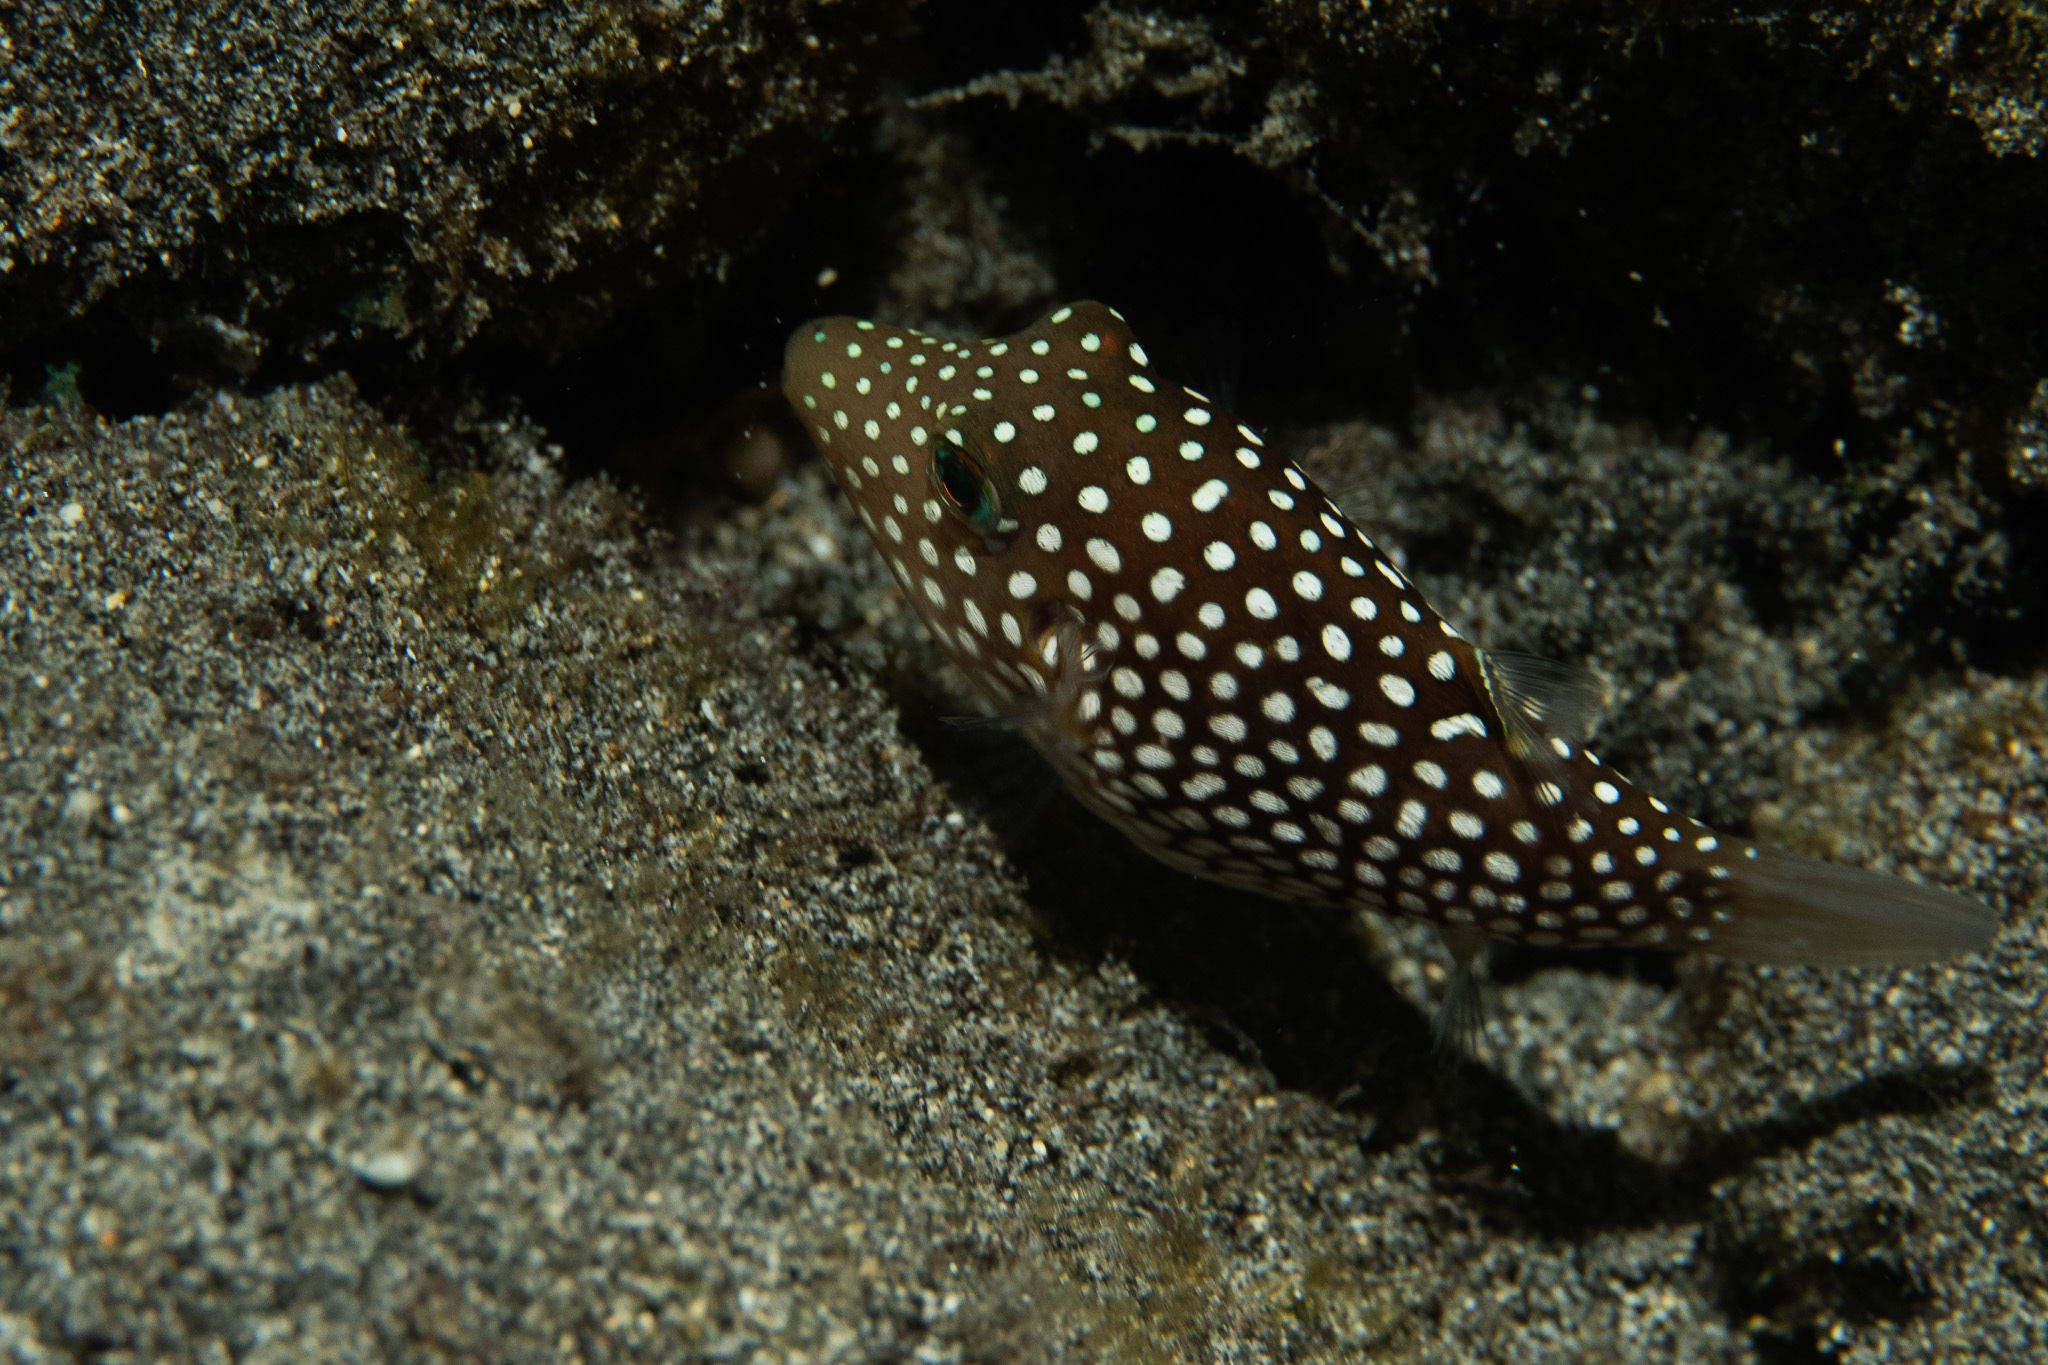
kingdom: Animalia
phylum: Chordata
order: Tetraodontiformes
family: Tetraodontidae
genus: Canthigaster
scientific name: Canthigaster jactator
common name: Hawaiian whitespotted toby
